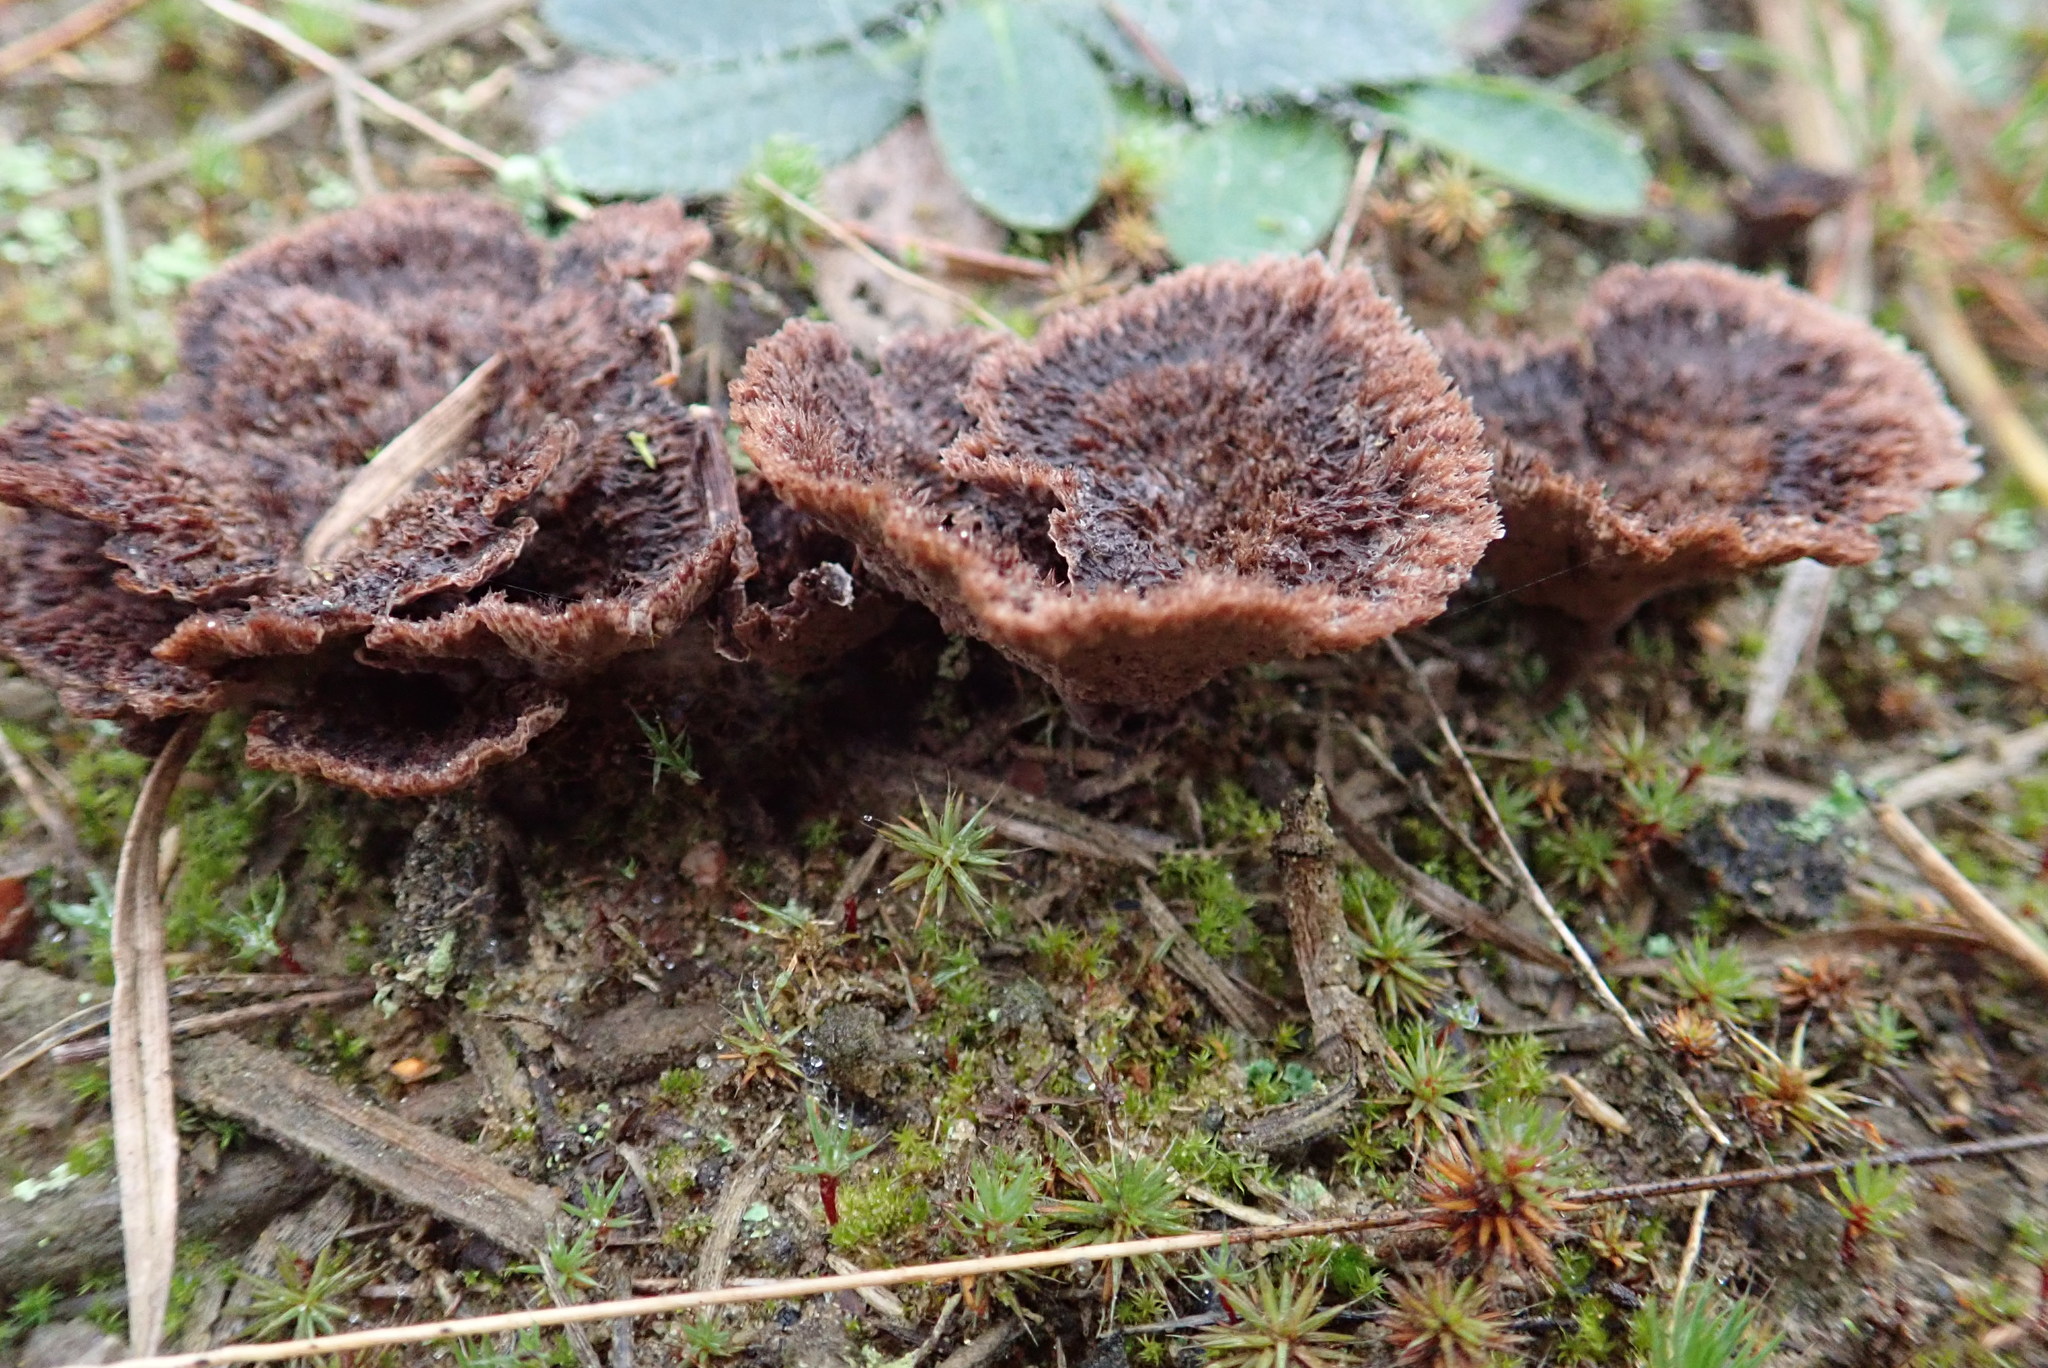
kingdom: Fungi
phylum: Basidiomycota
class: Agaricomycetes
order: Thelephorales
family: Thelephoraceae
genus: Thelephora
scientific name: Thelephora terrestris
